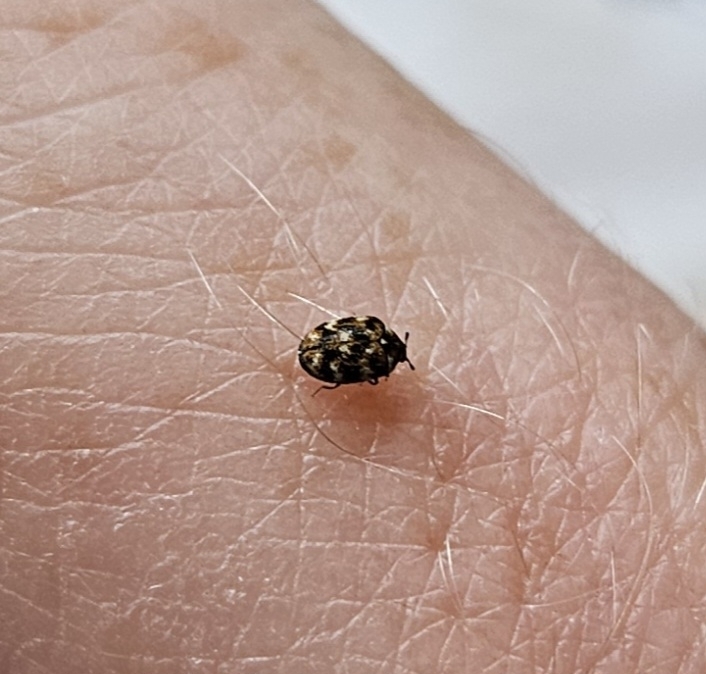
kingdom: Animalia
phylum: Arthropoda
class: Insecta
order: Coleoptera
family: Dermestidae
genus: Anthrenus
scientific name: Anthrenus verbasci
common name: Varied carpet beetle
